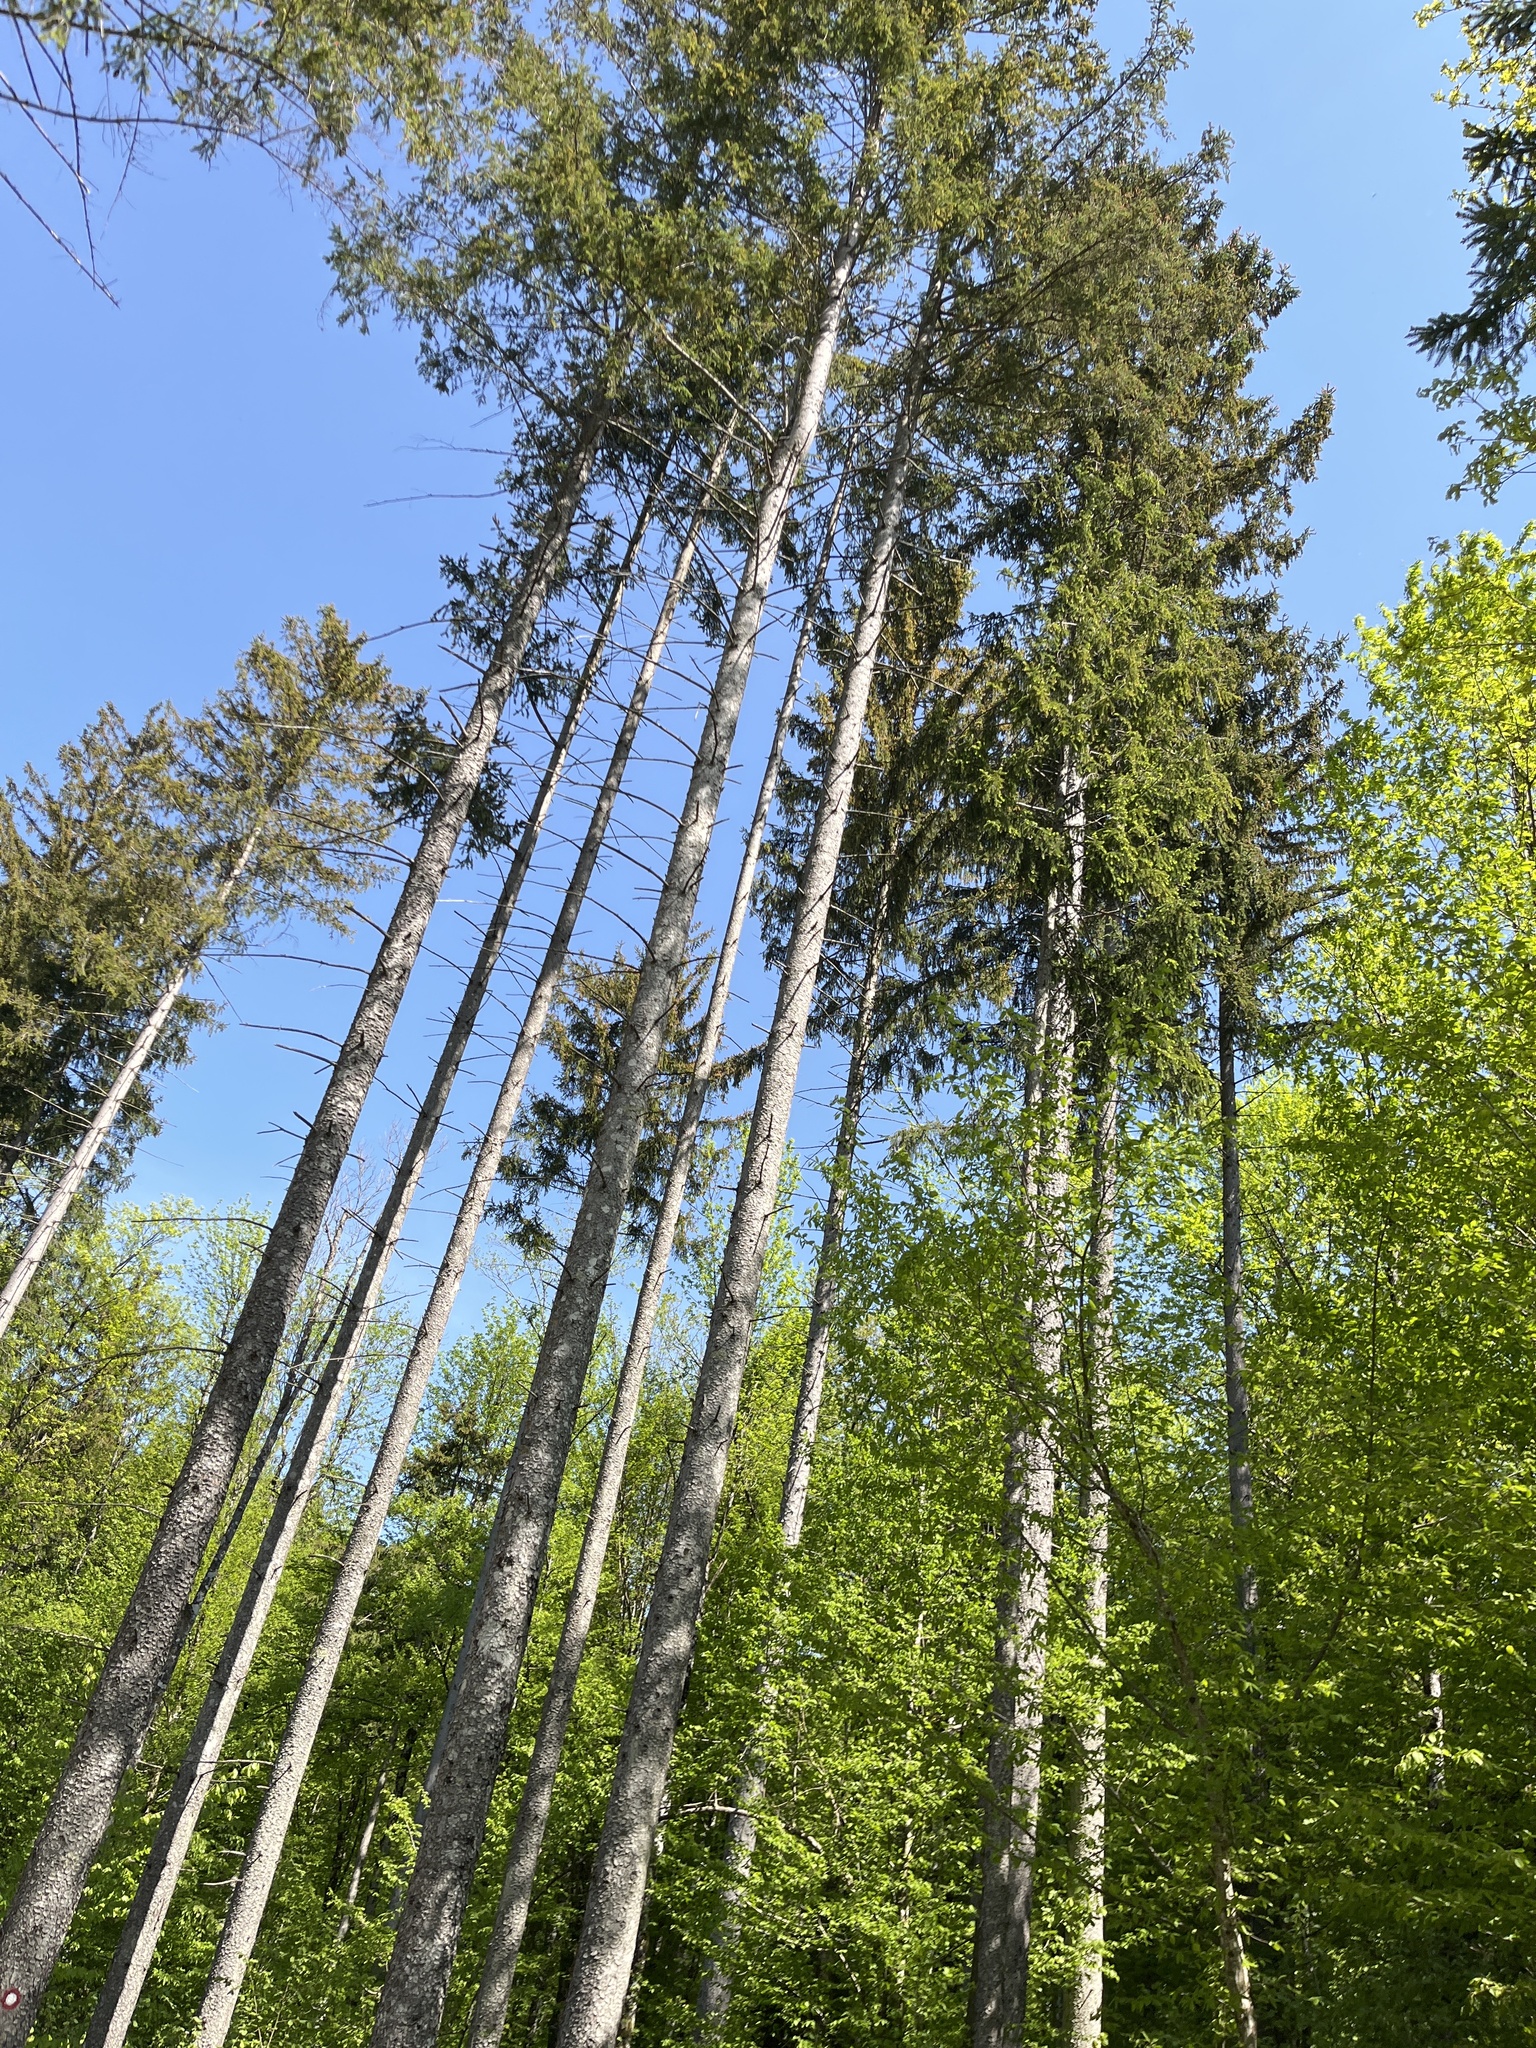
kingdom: Plantae
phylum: Tracheophyta
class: Pinopsida
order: Pinales
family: Pinaceae
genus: Picea
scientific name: Picea abies
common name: Norway spruce
